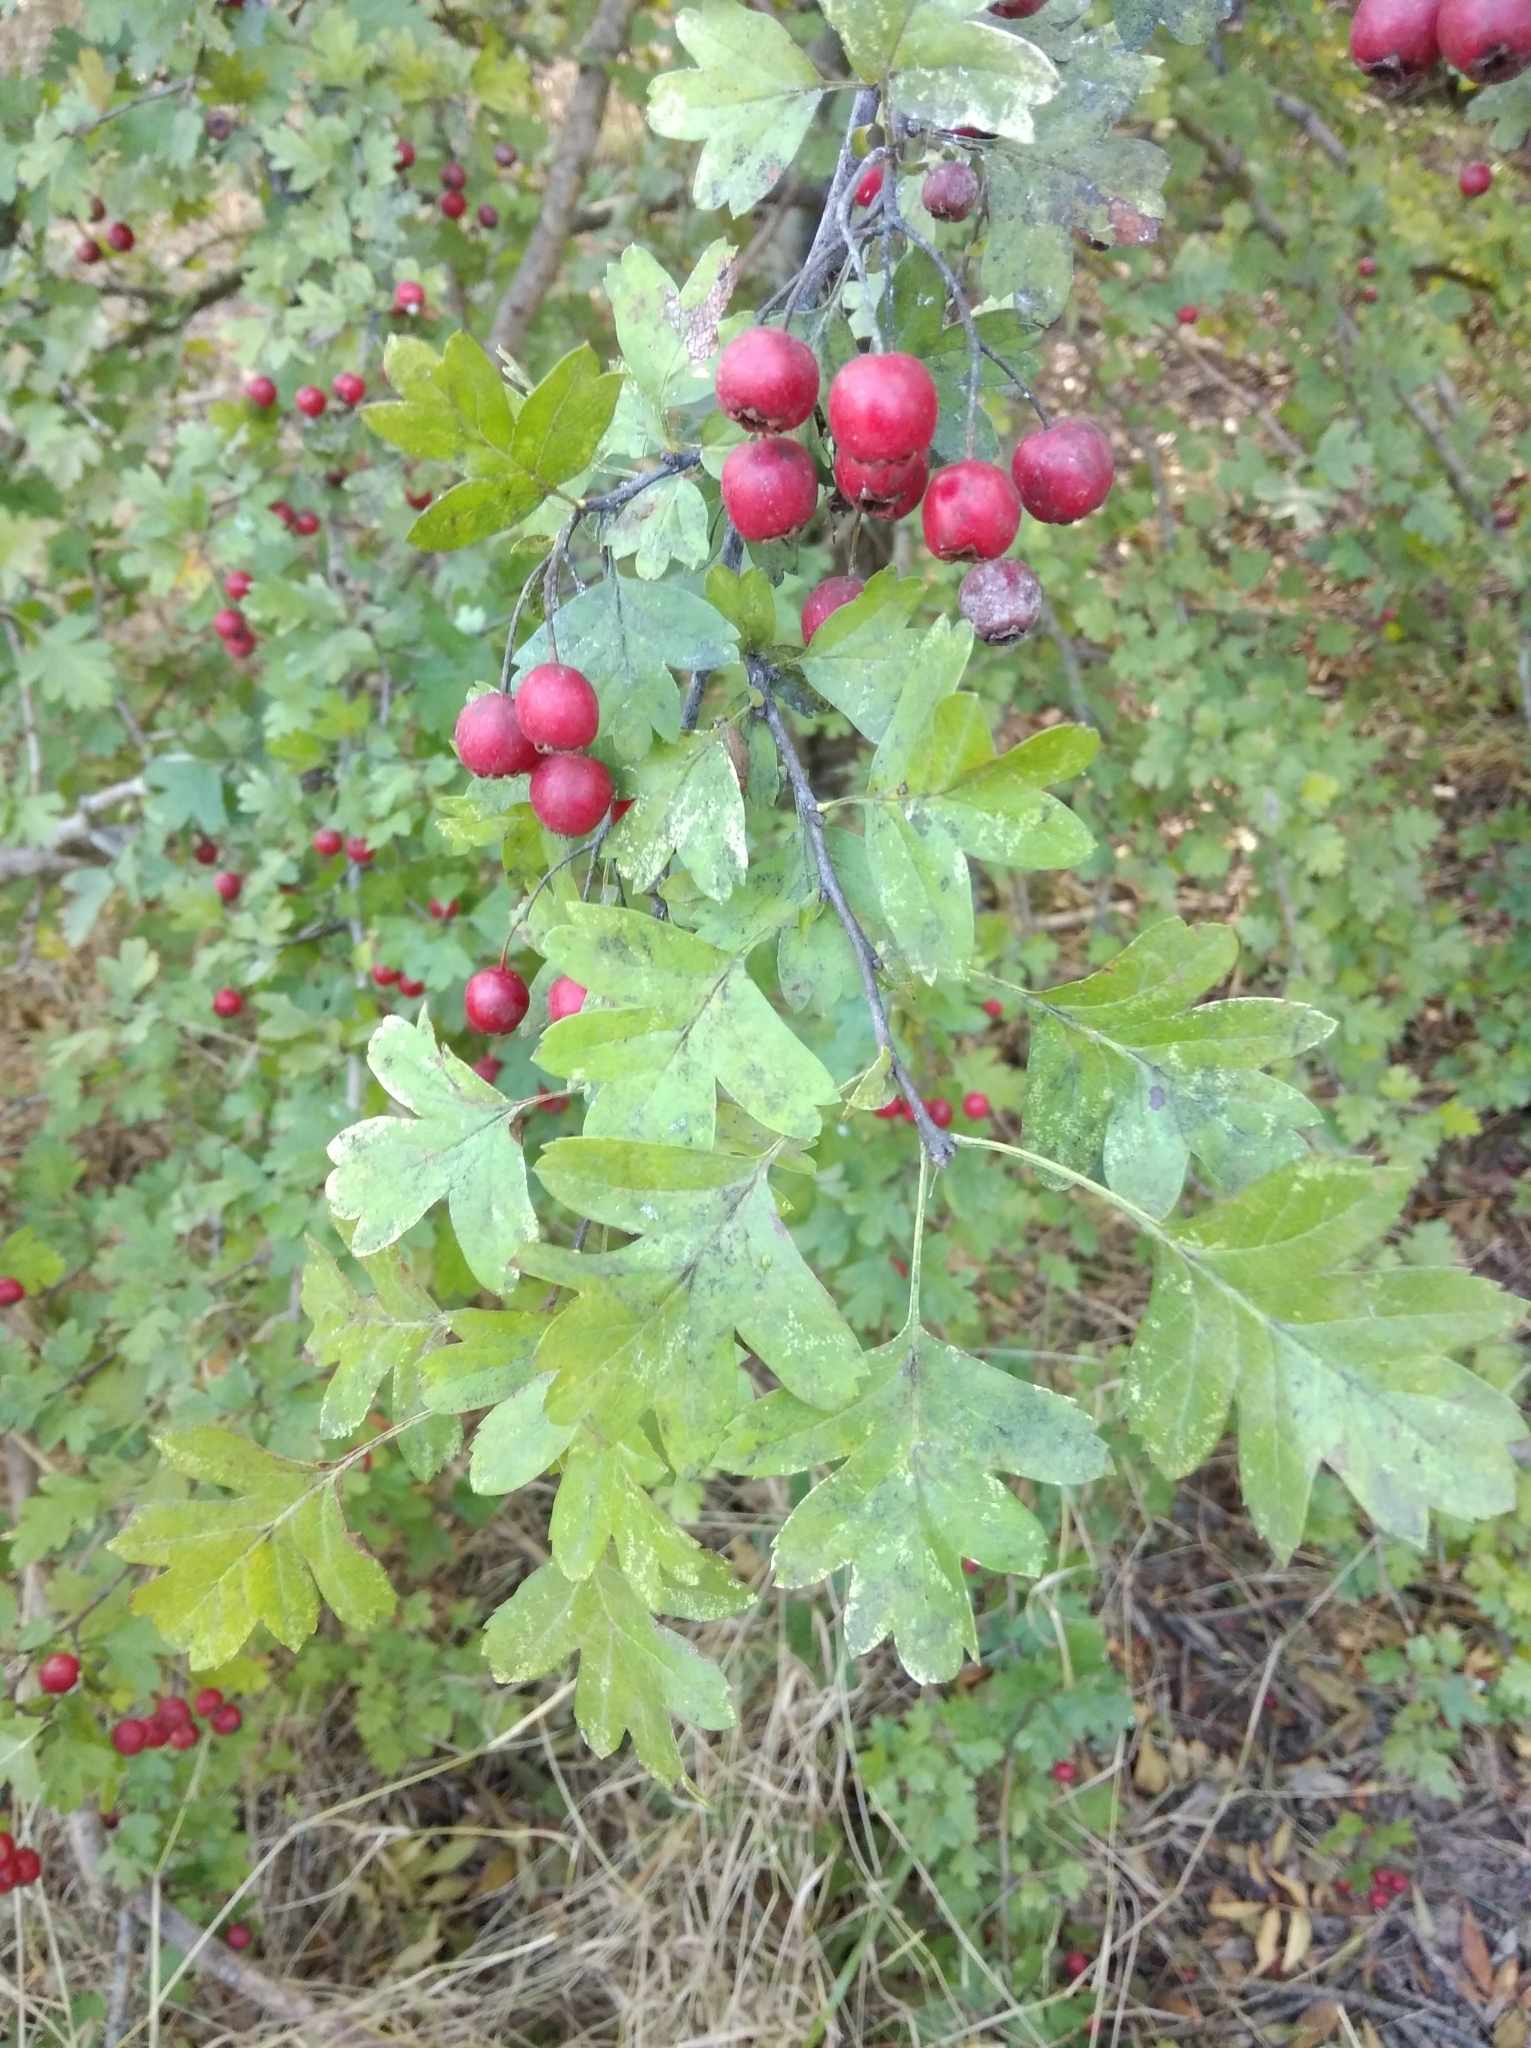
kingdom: Plantae
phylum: Tracheophyta
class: Magnoliopsida
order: Rosales
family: Rosaceae
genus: Crataegus
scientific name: Crataegus monogyna
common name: Hawthorn
